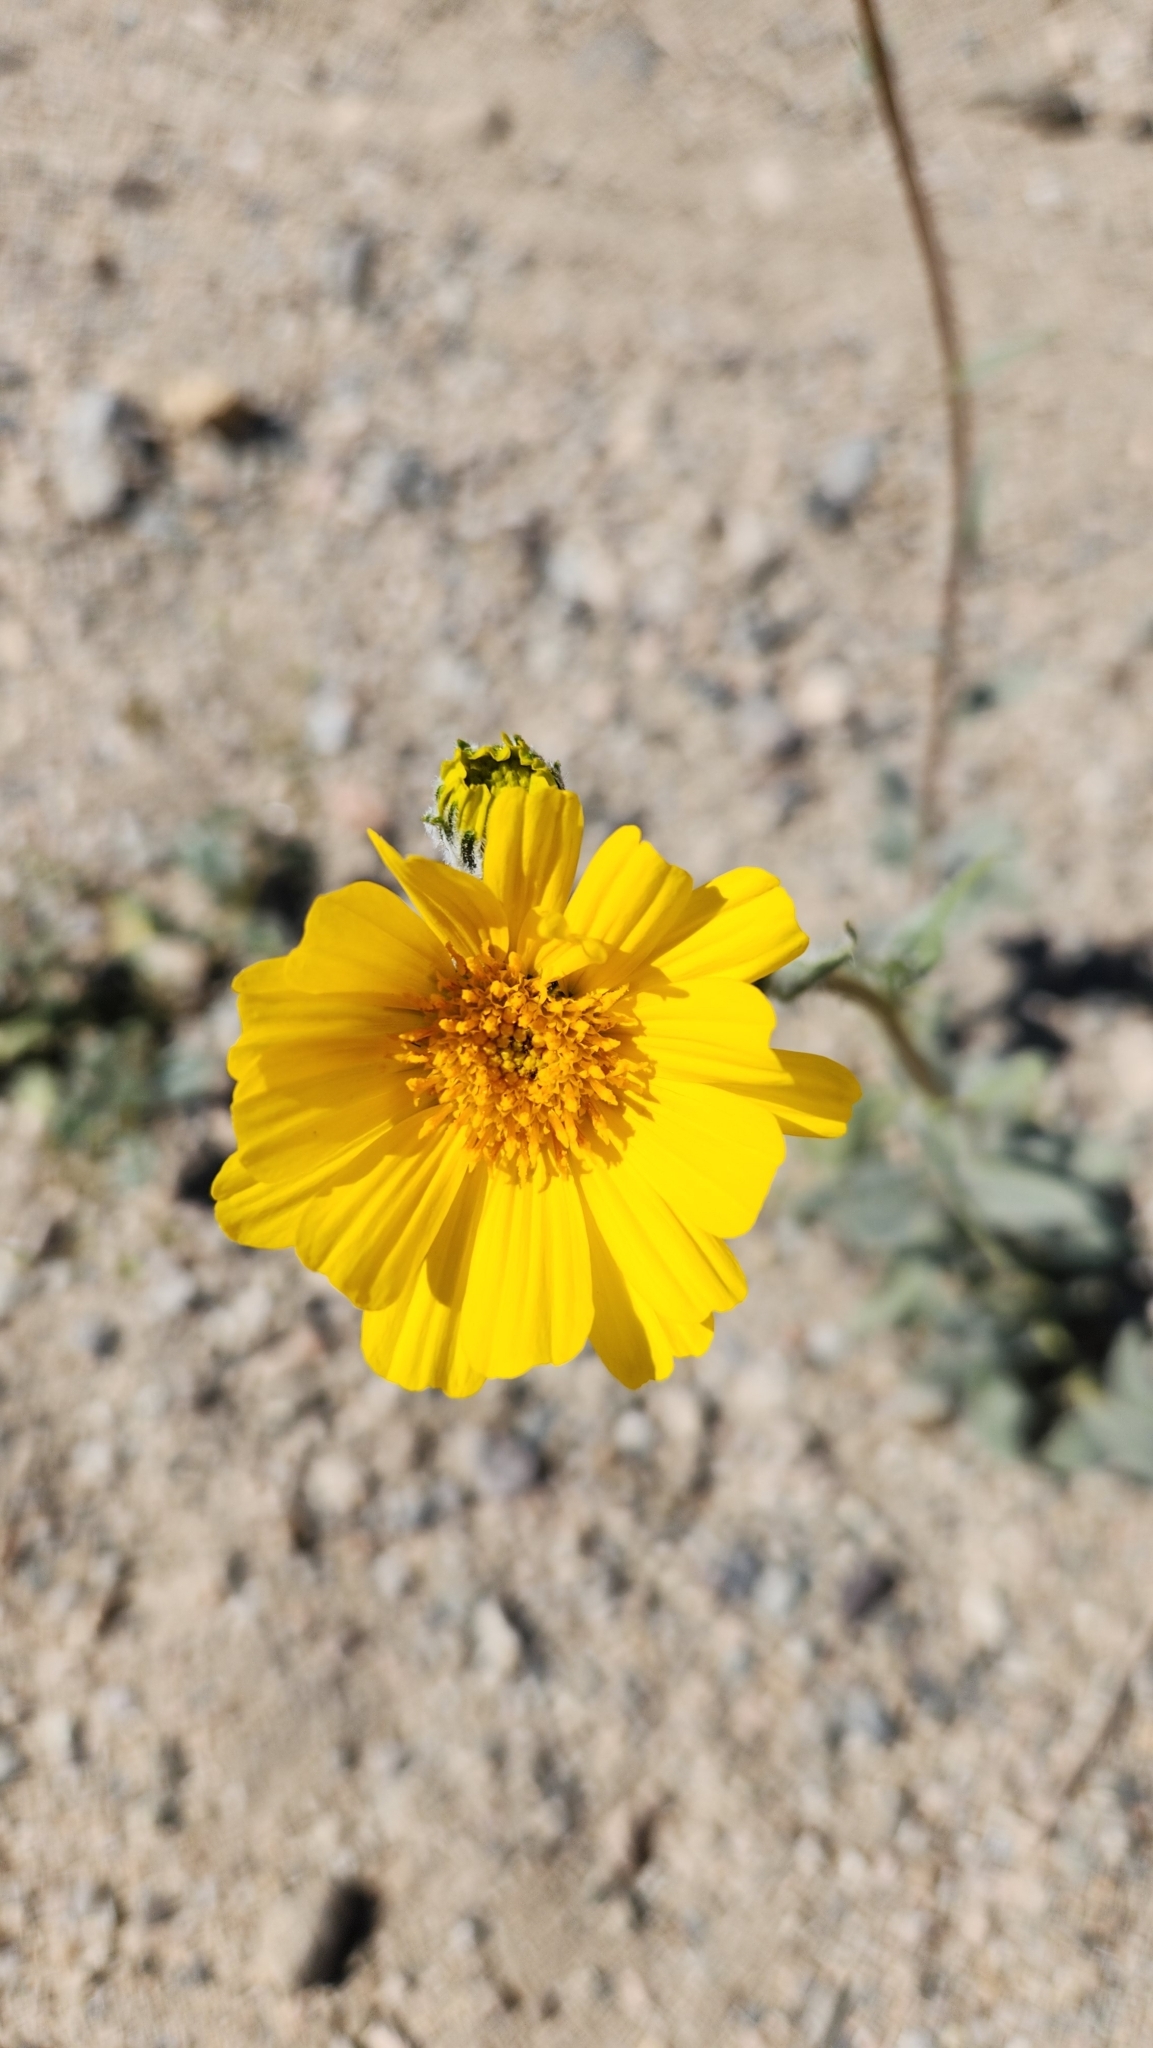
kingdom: Plantae
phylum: Tracheophyta
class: Magnoliopsida
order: Asterales
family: Asteraceae
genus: Geraea
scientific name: Geraea canescens
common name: Desert-gold
